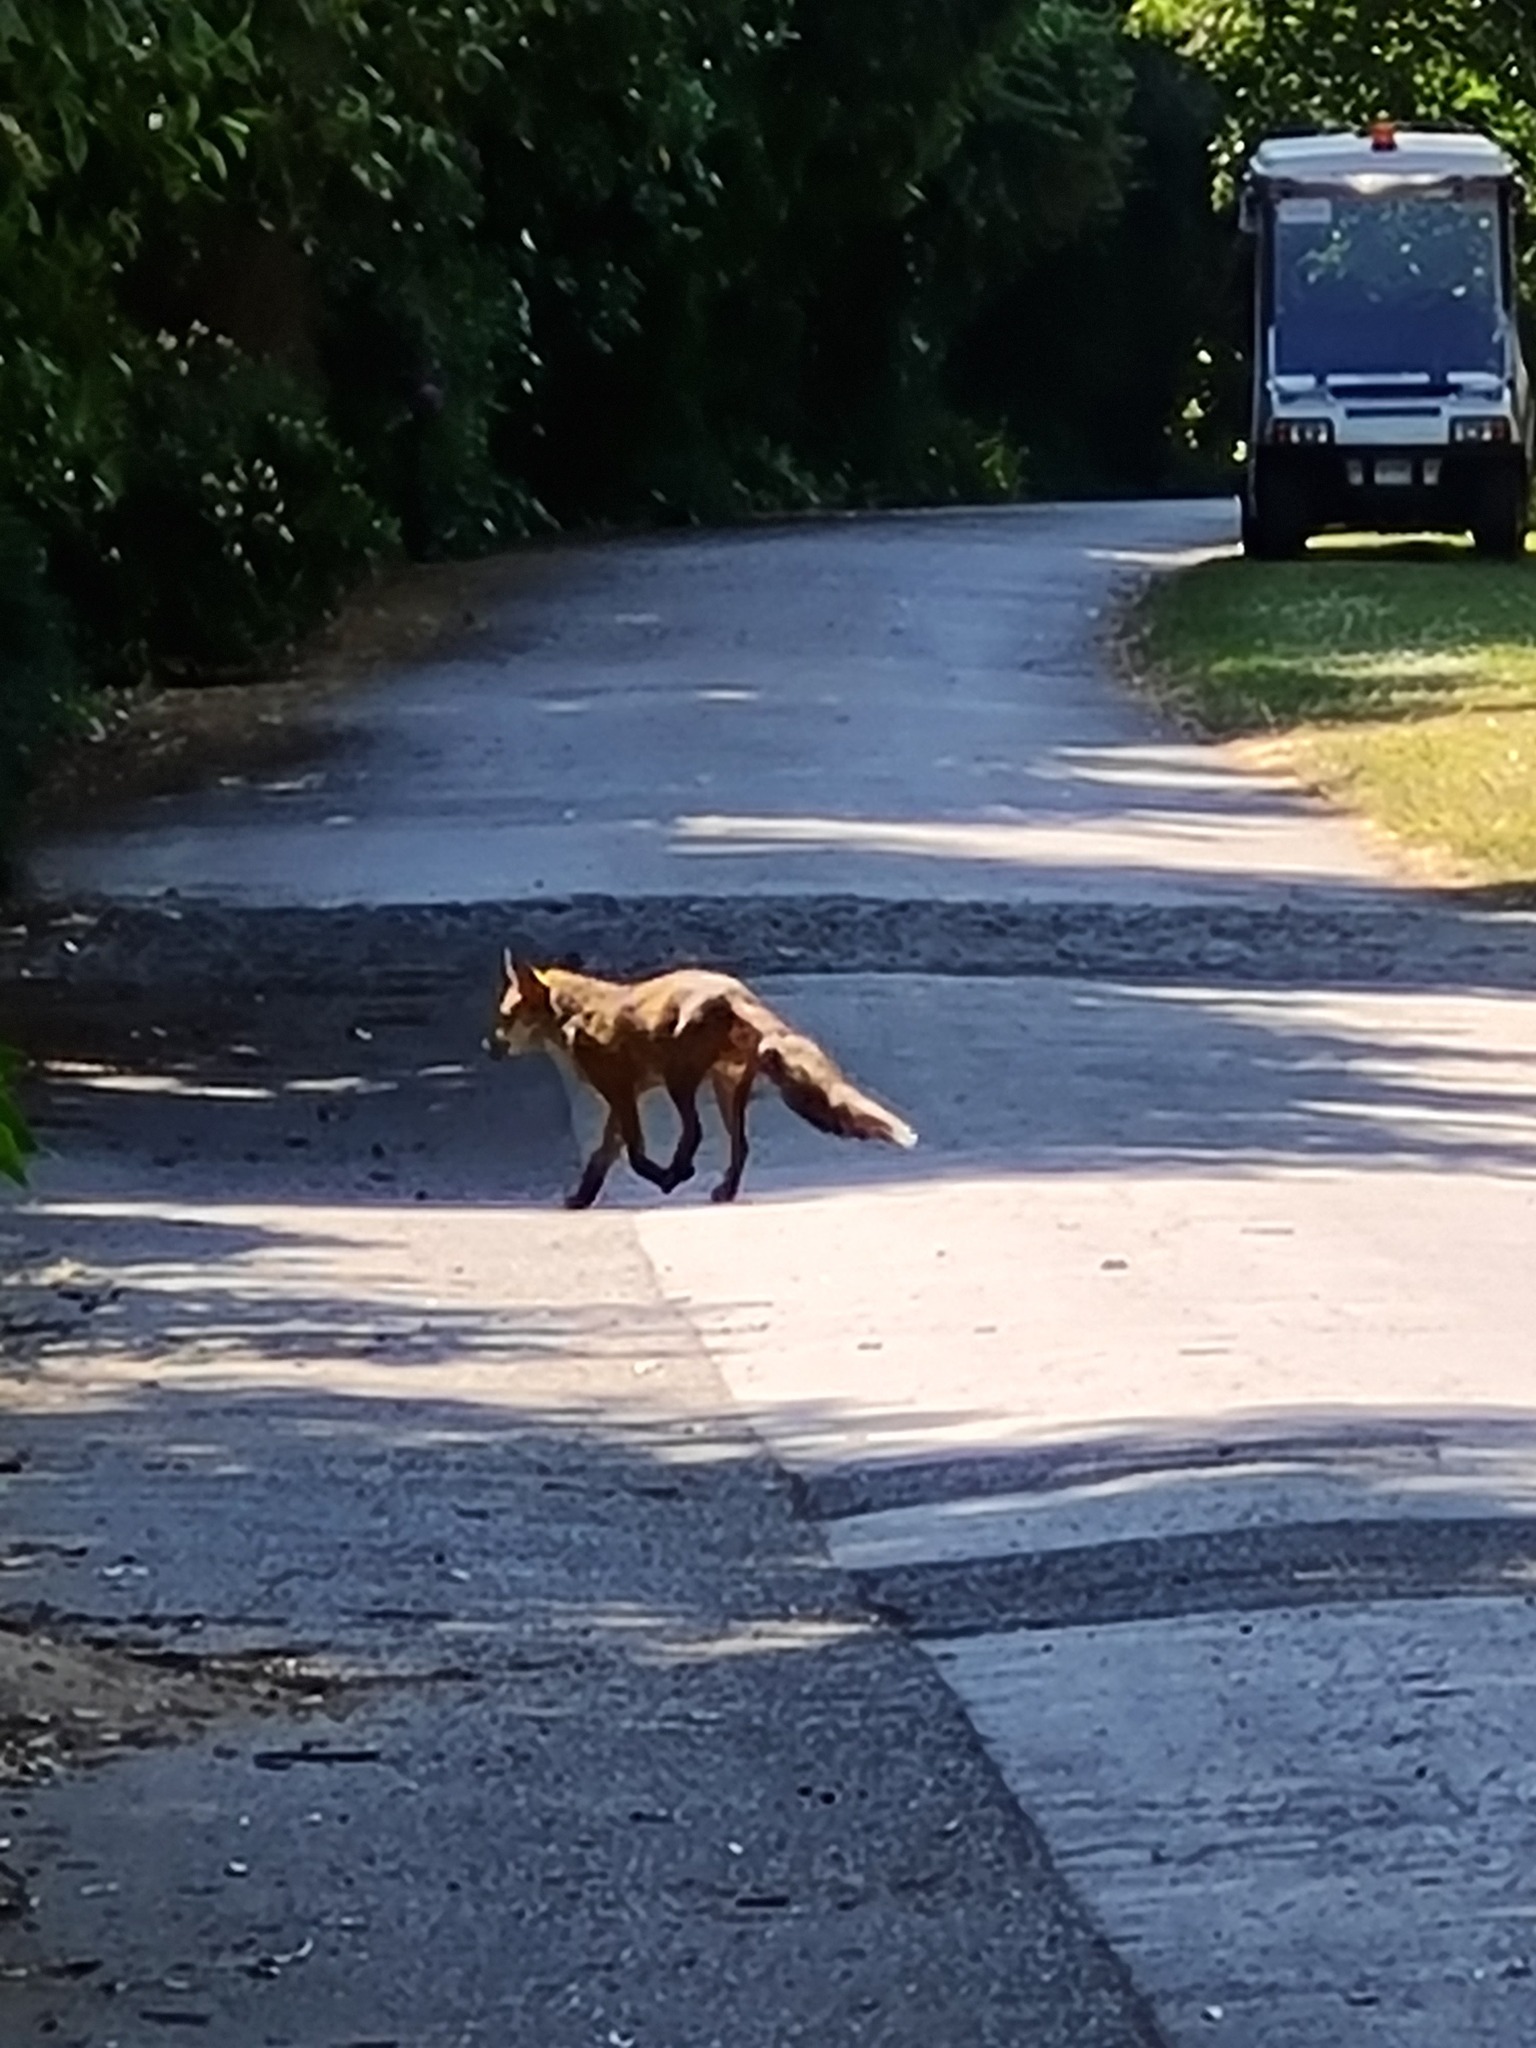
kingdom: Animalia
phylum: Chordata
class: Mammalia
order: Carnivora
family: Canidae
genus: Vulpes
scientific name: Vulpes vulpes
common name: Red fox
